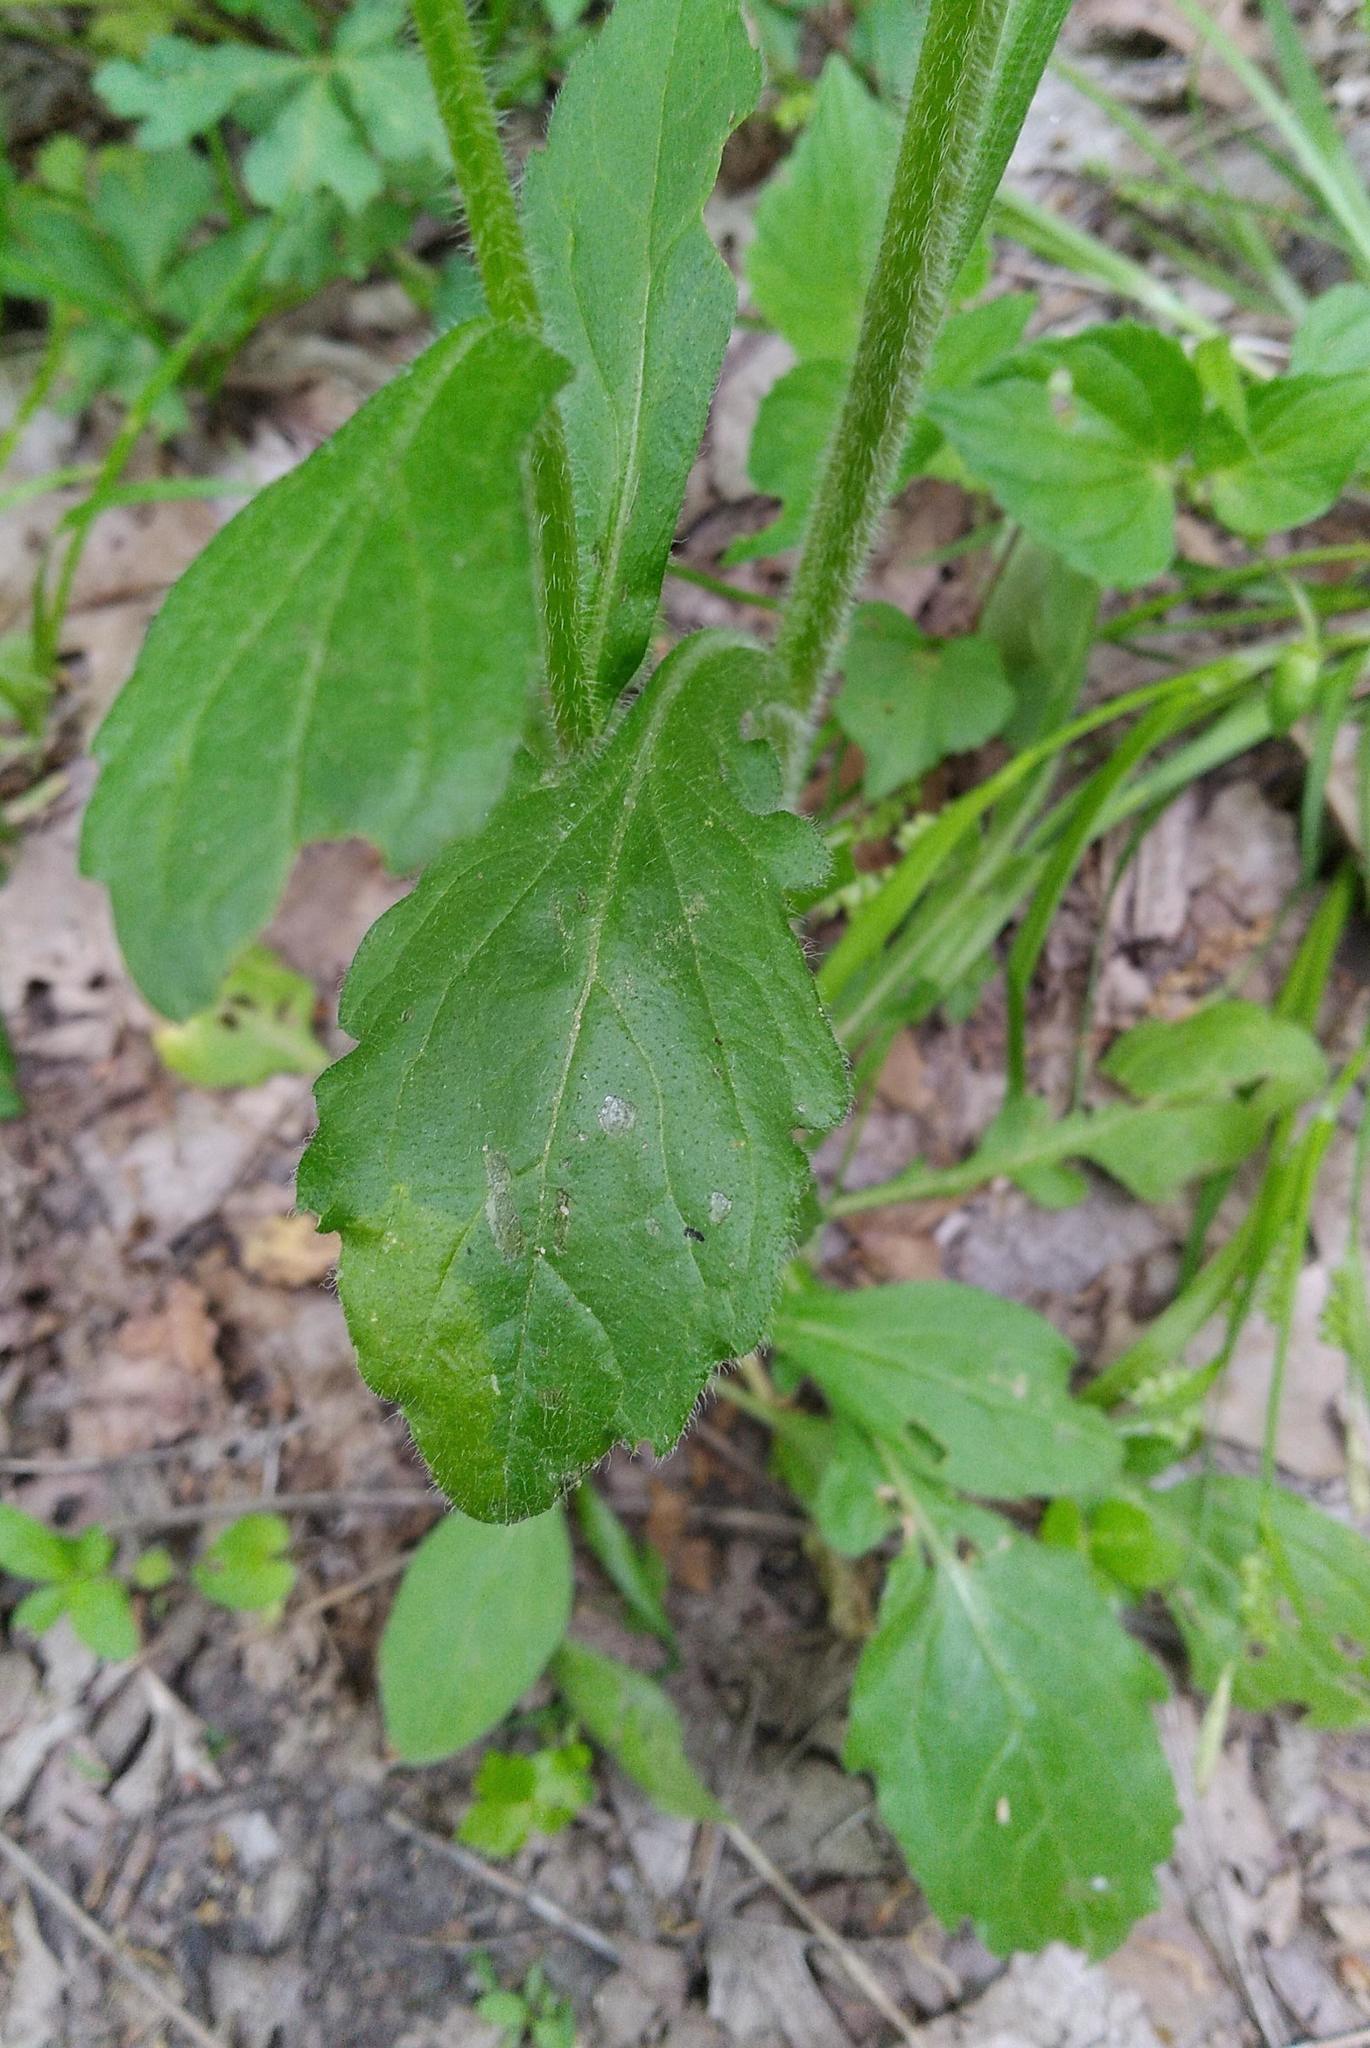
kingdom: Animalia
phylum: Arthropoda
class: Insecta
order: Lepidoptera
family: Gracillariidae
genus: Parectopa
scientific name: Parectopa plantaginisella
